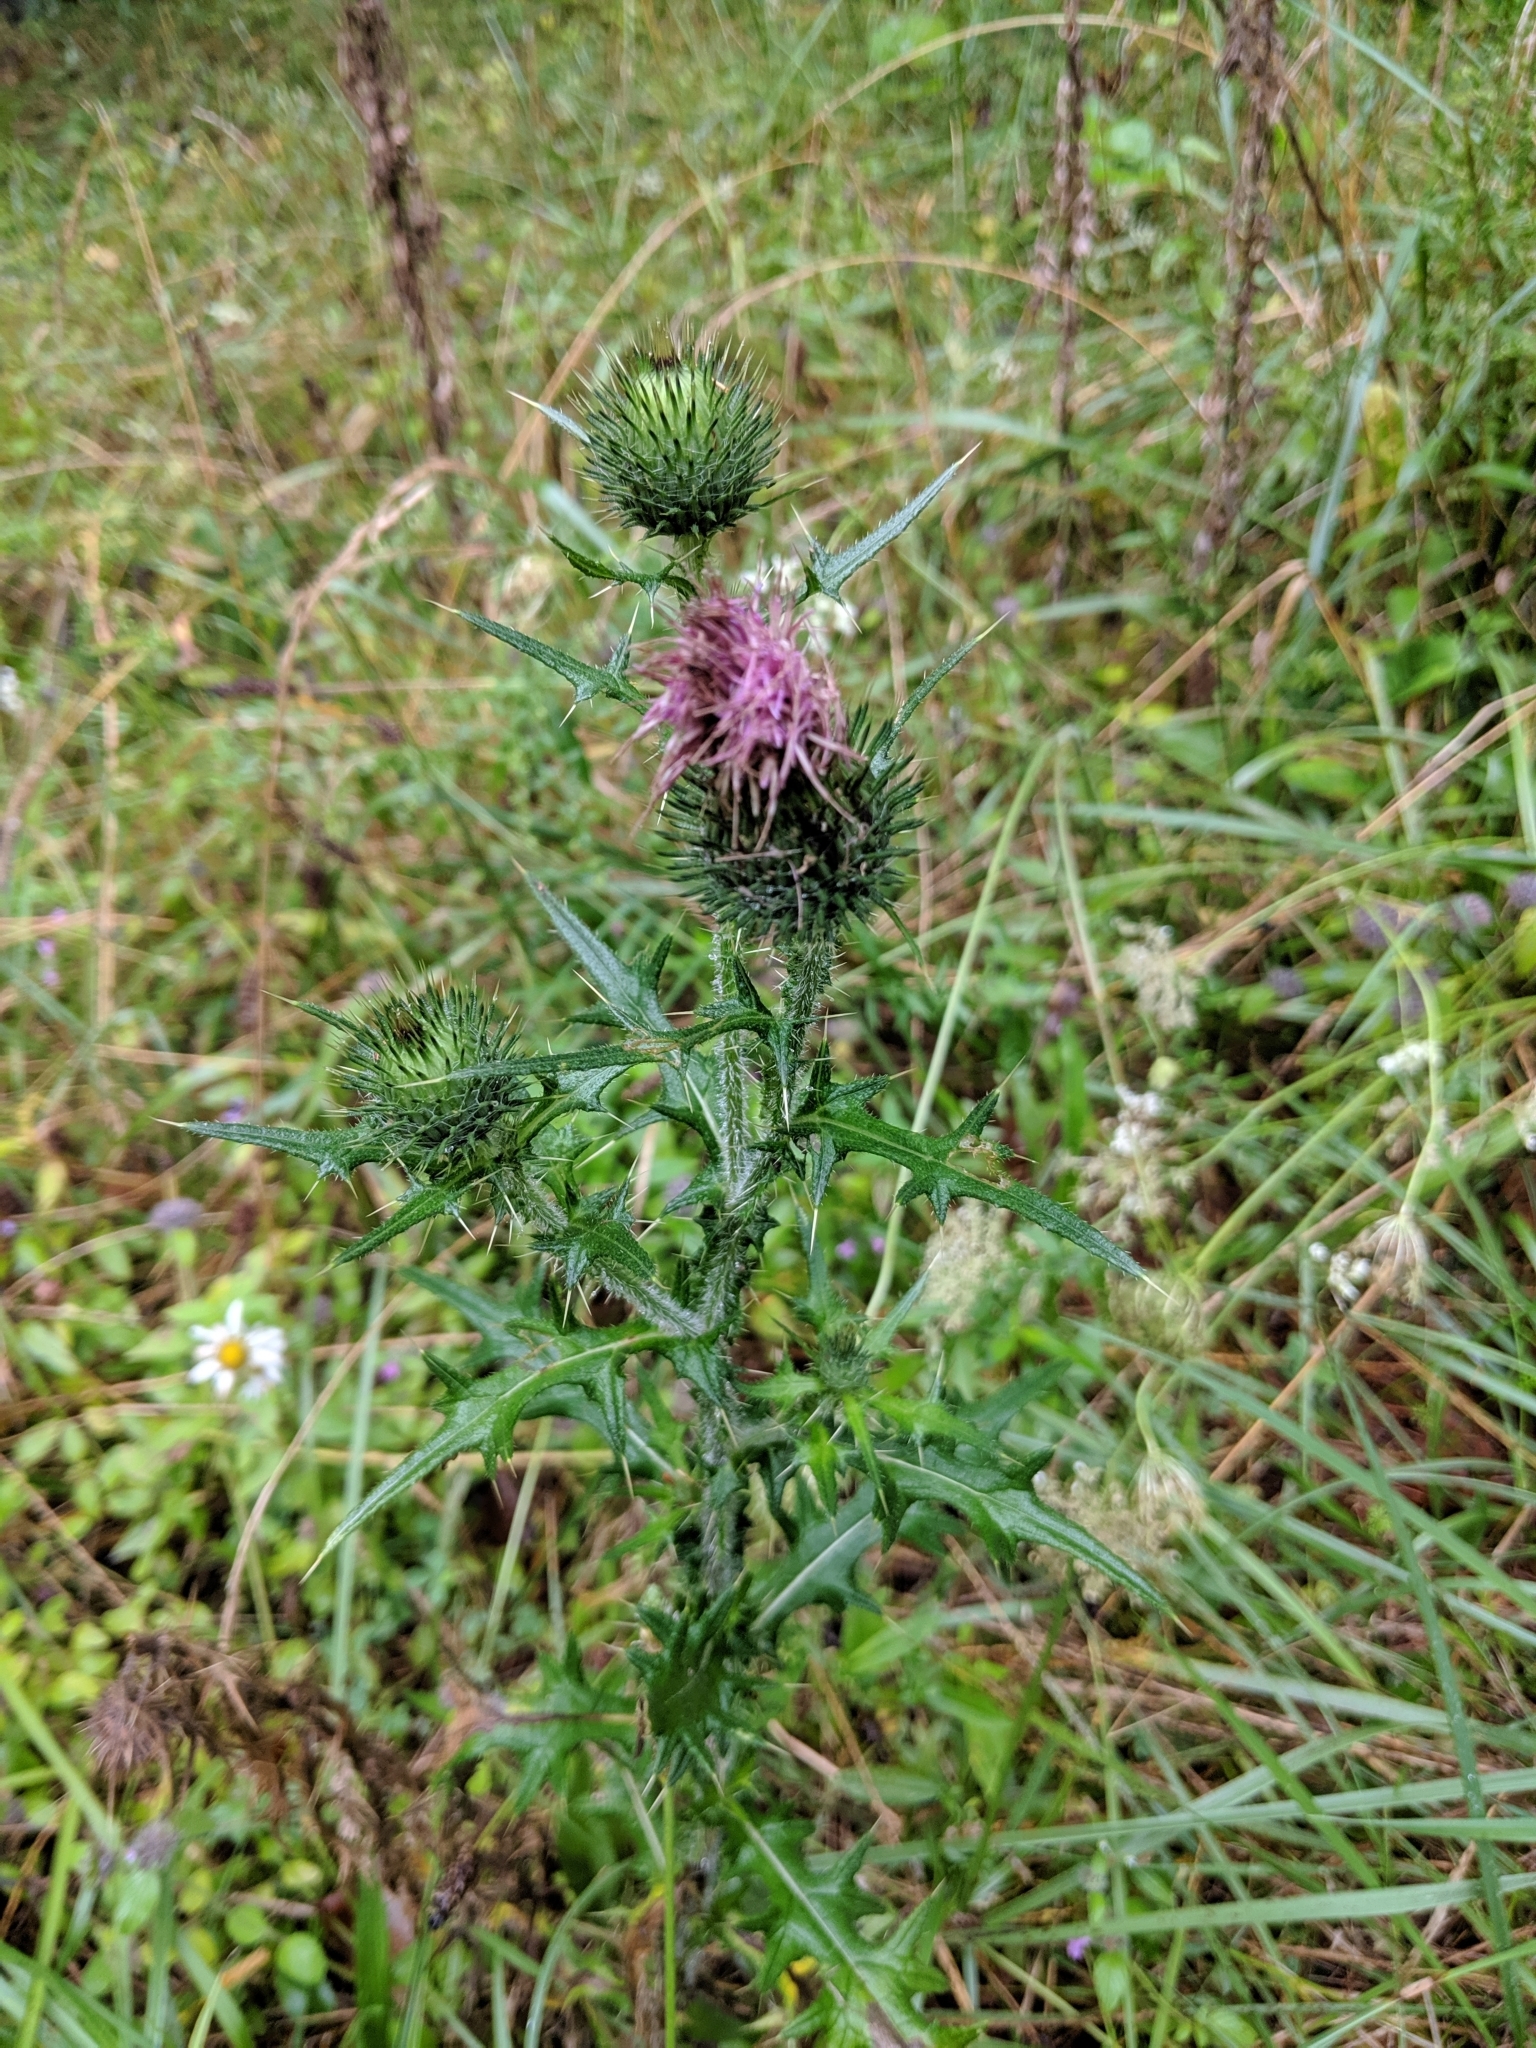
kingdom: Plantae
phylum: Tracheophyta
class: Magnoliopsida
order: Asterales
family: Asteraceae
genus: Cirsium
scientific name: Cirsium vulgare
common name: Bull thistle
